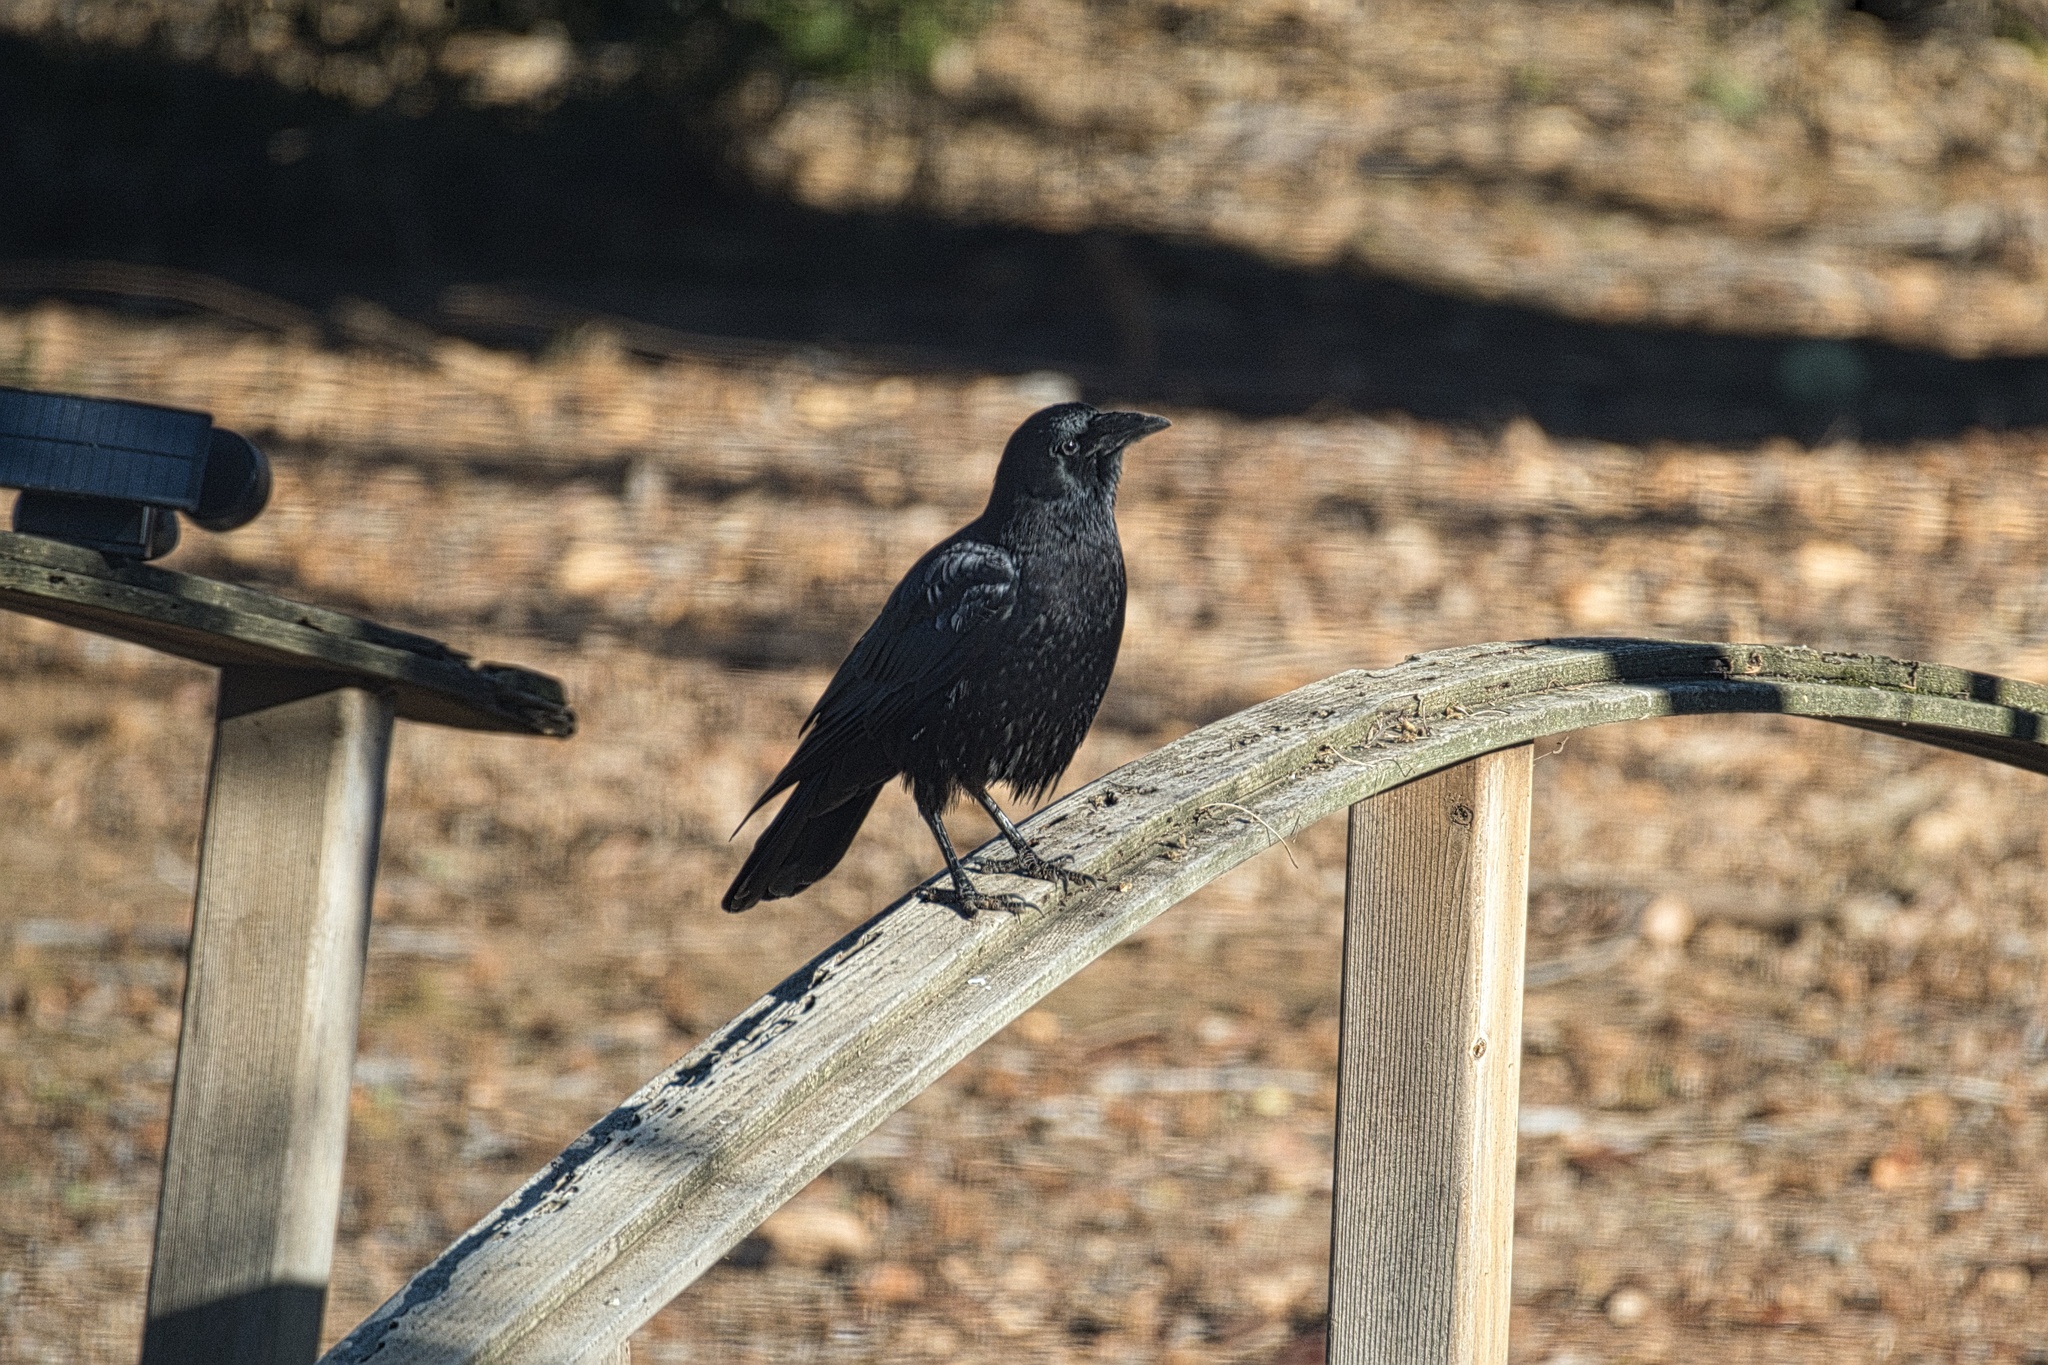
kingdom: Animalia
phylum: Chordata
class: Aves
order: Passeriformes
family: Corvidae
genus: Corvus
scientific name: Corvus brachyrhynchos
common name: American crow
